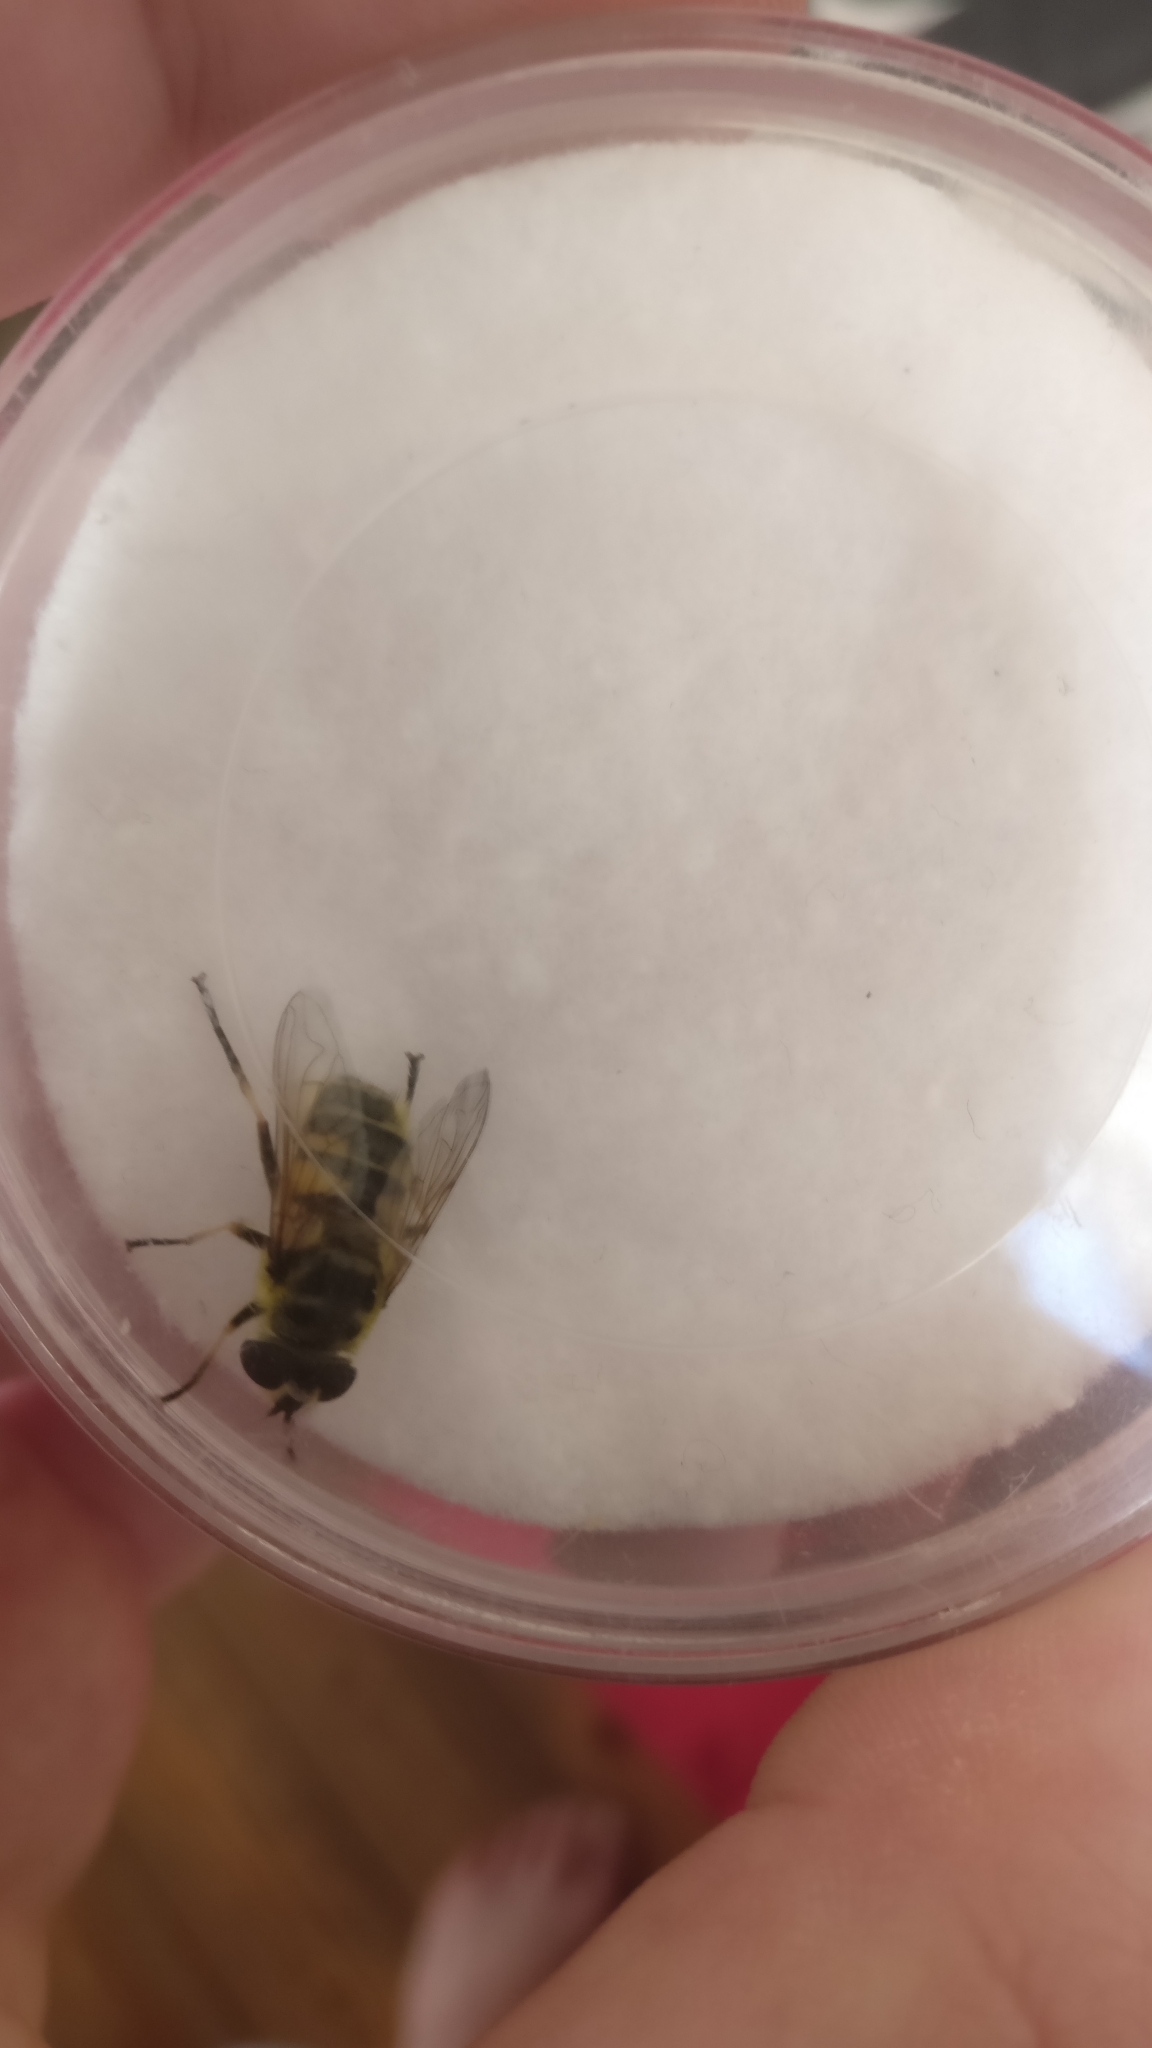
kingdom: Animalia
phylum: Arthropoda
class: Insecta
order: Diptera
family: Syrphidae
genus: Myathropa
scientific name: Myathropa florea
